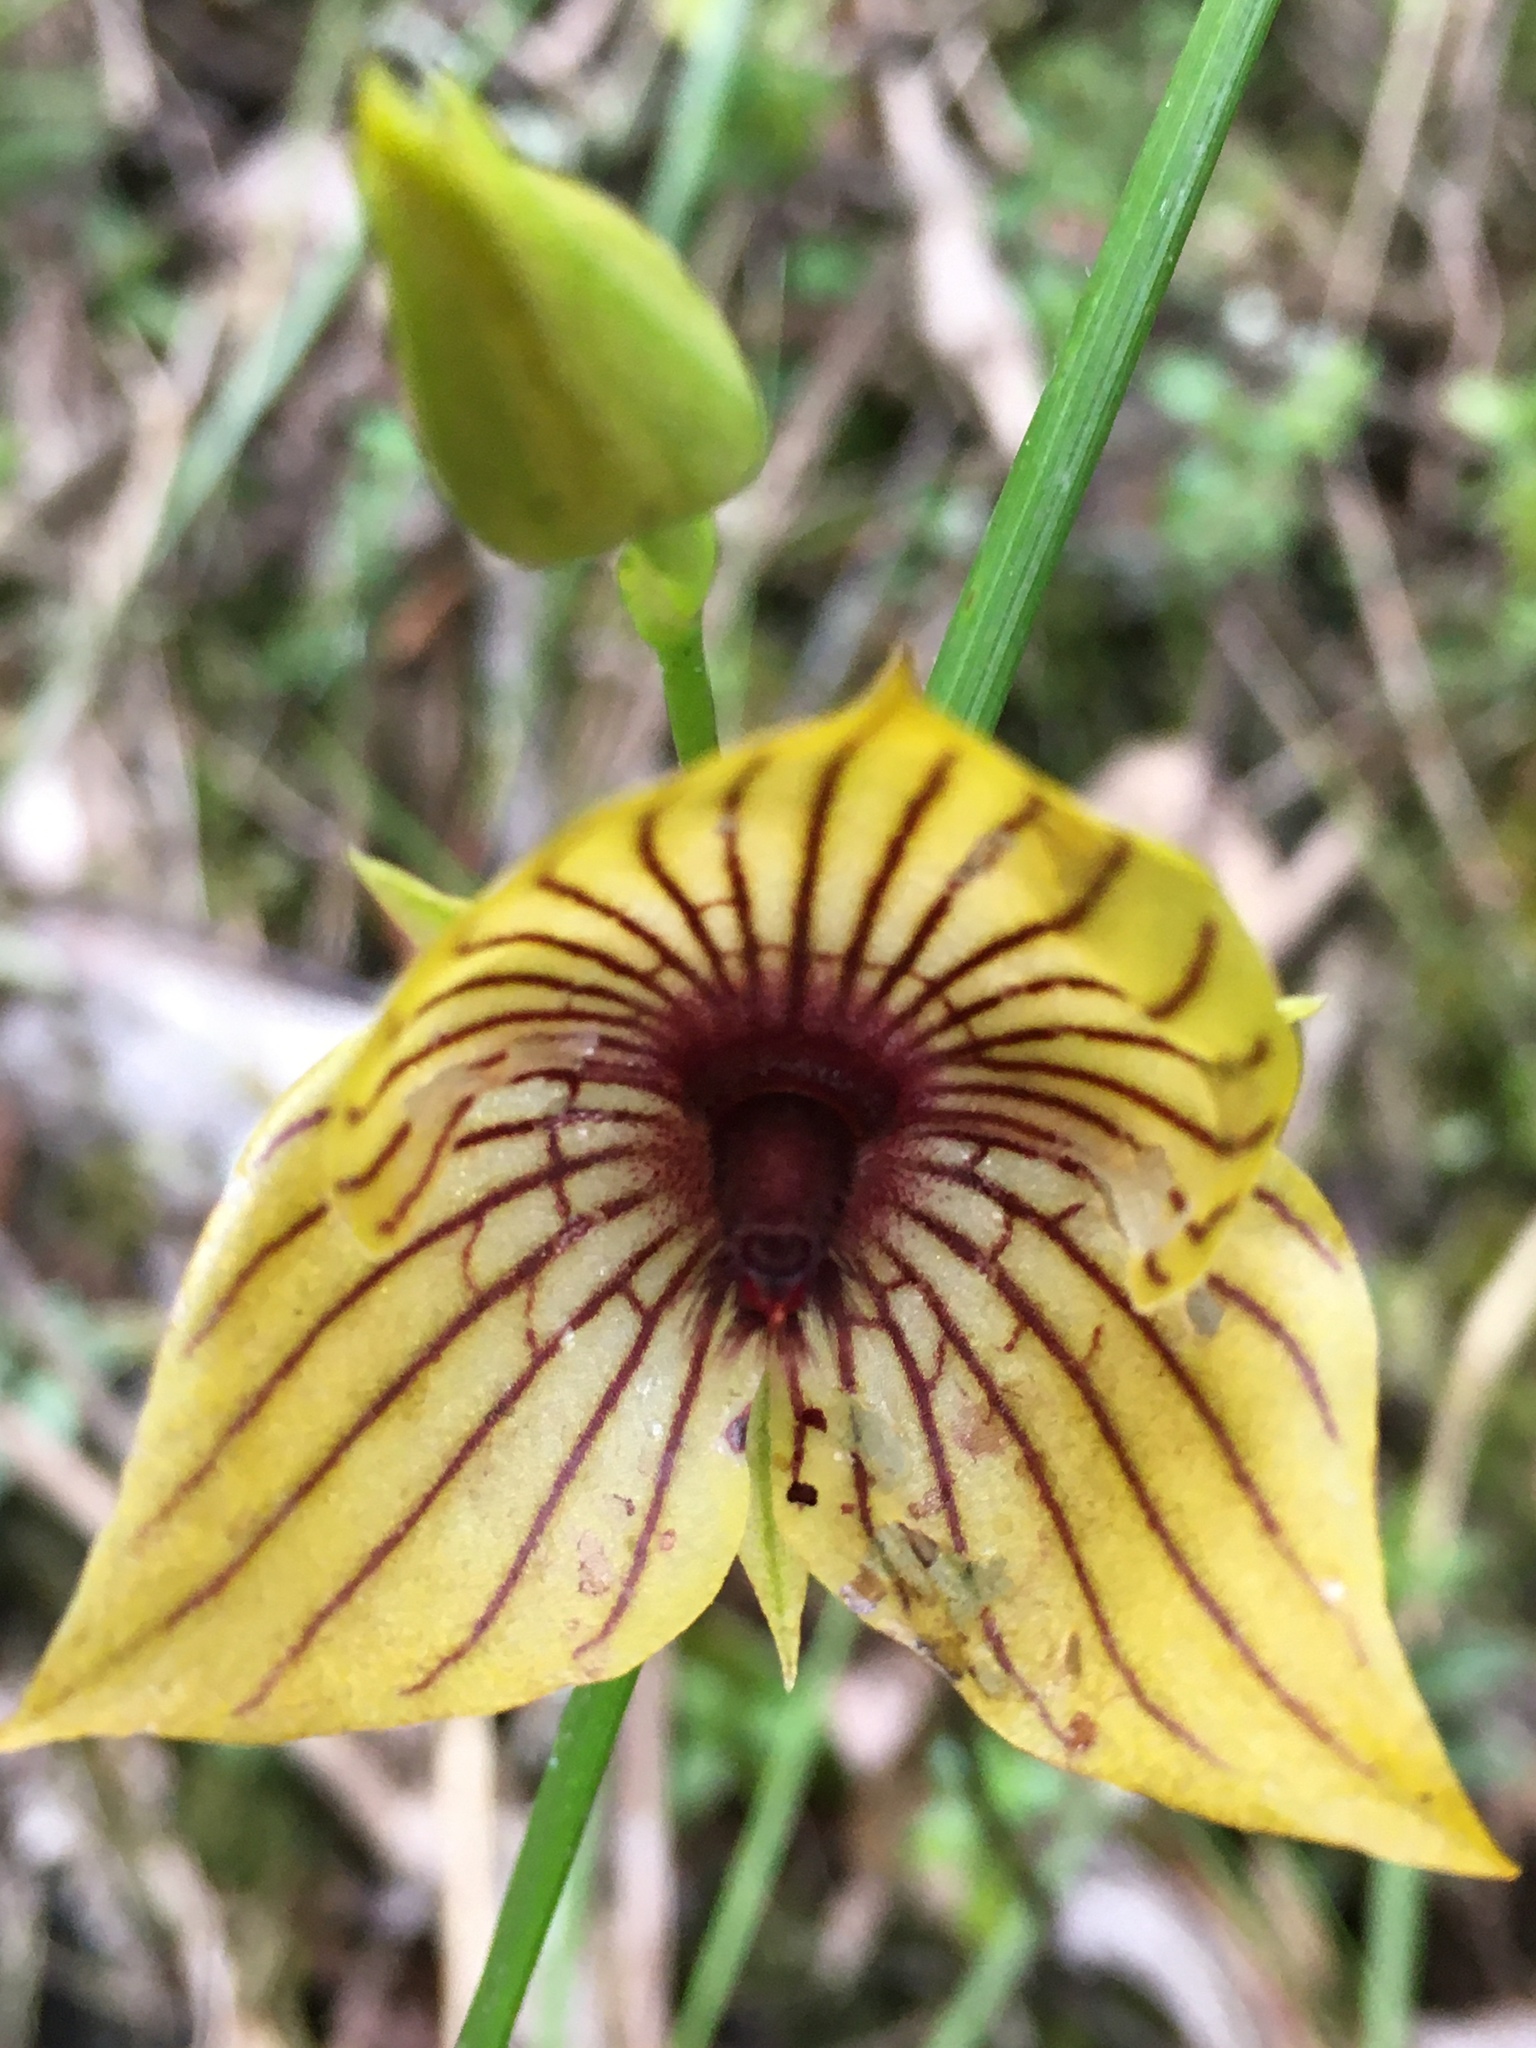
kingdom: Plantae
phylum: Tracheophyta
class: Liliopsida
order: Asparagales
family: Orchidaceae
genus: Telipogon
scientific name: Telipogon nervosus
